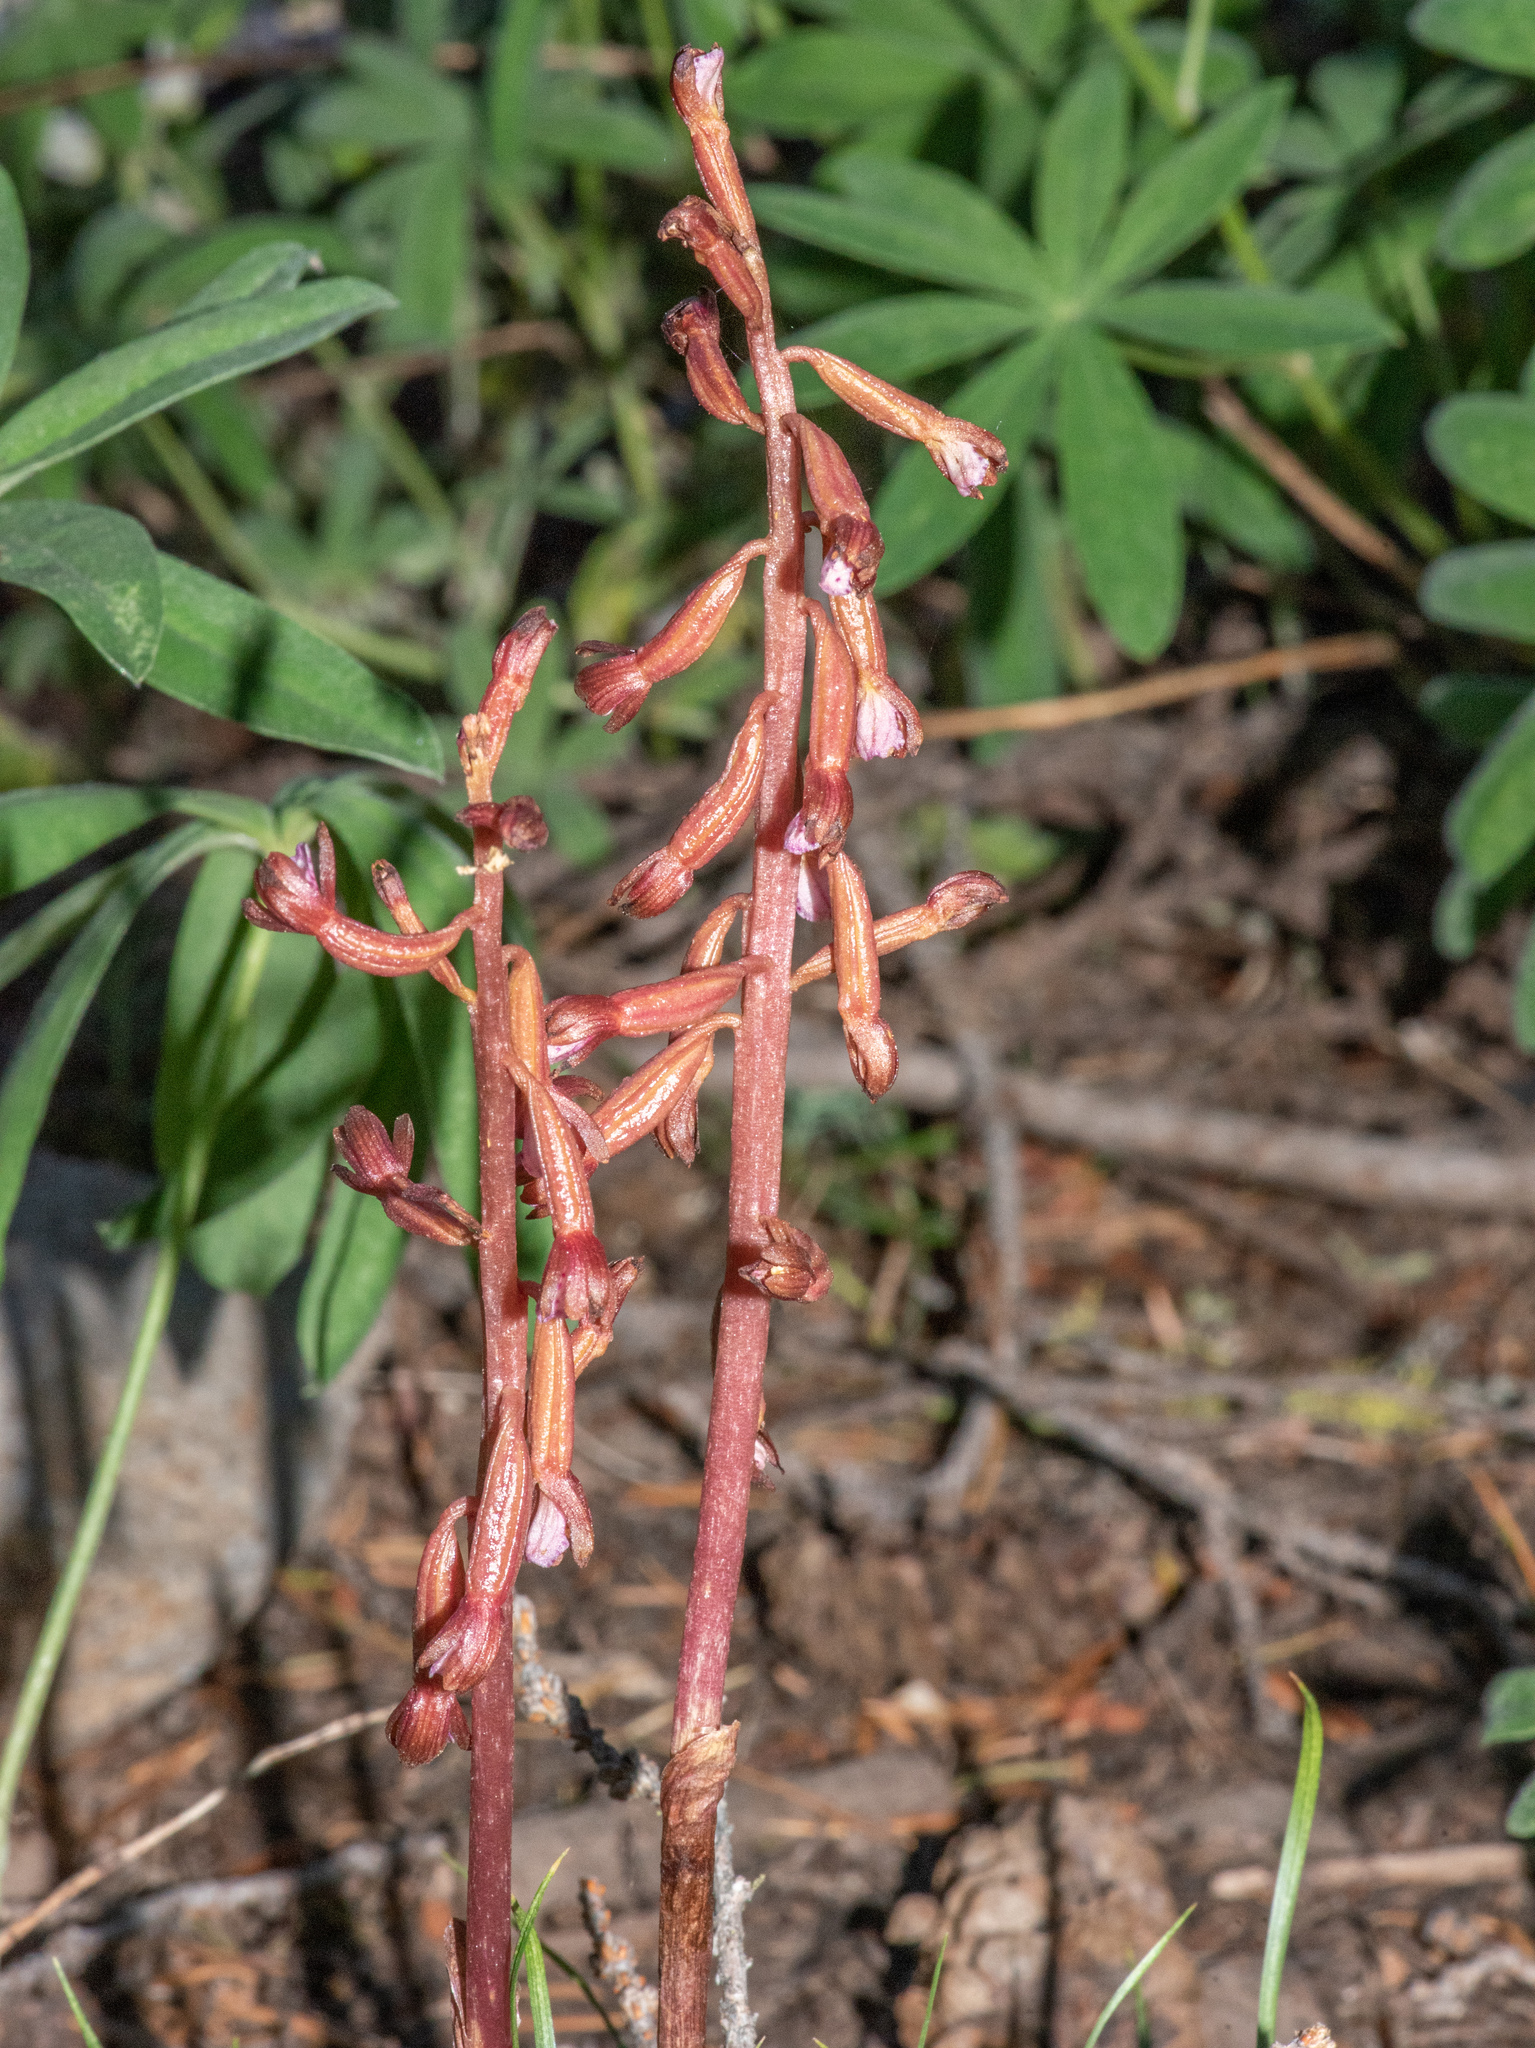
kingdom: Plantae
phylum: Tracheophyta
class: Liliopsida
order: Asparagales
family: Orchidaceae
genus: Corallorhiza
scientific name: Corallorhiza maculata
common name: Spotted coralroot
